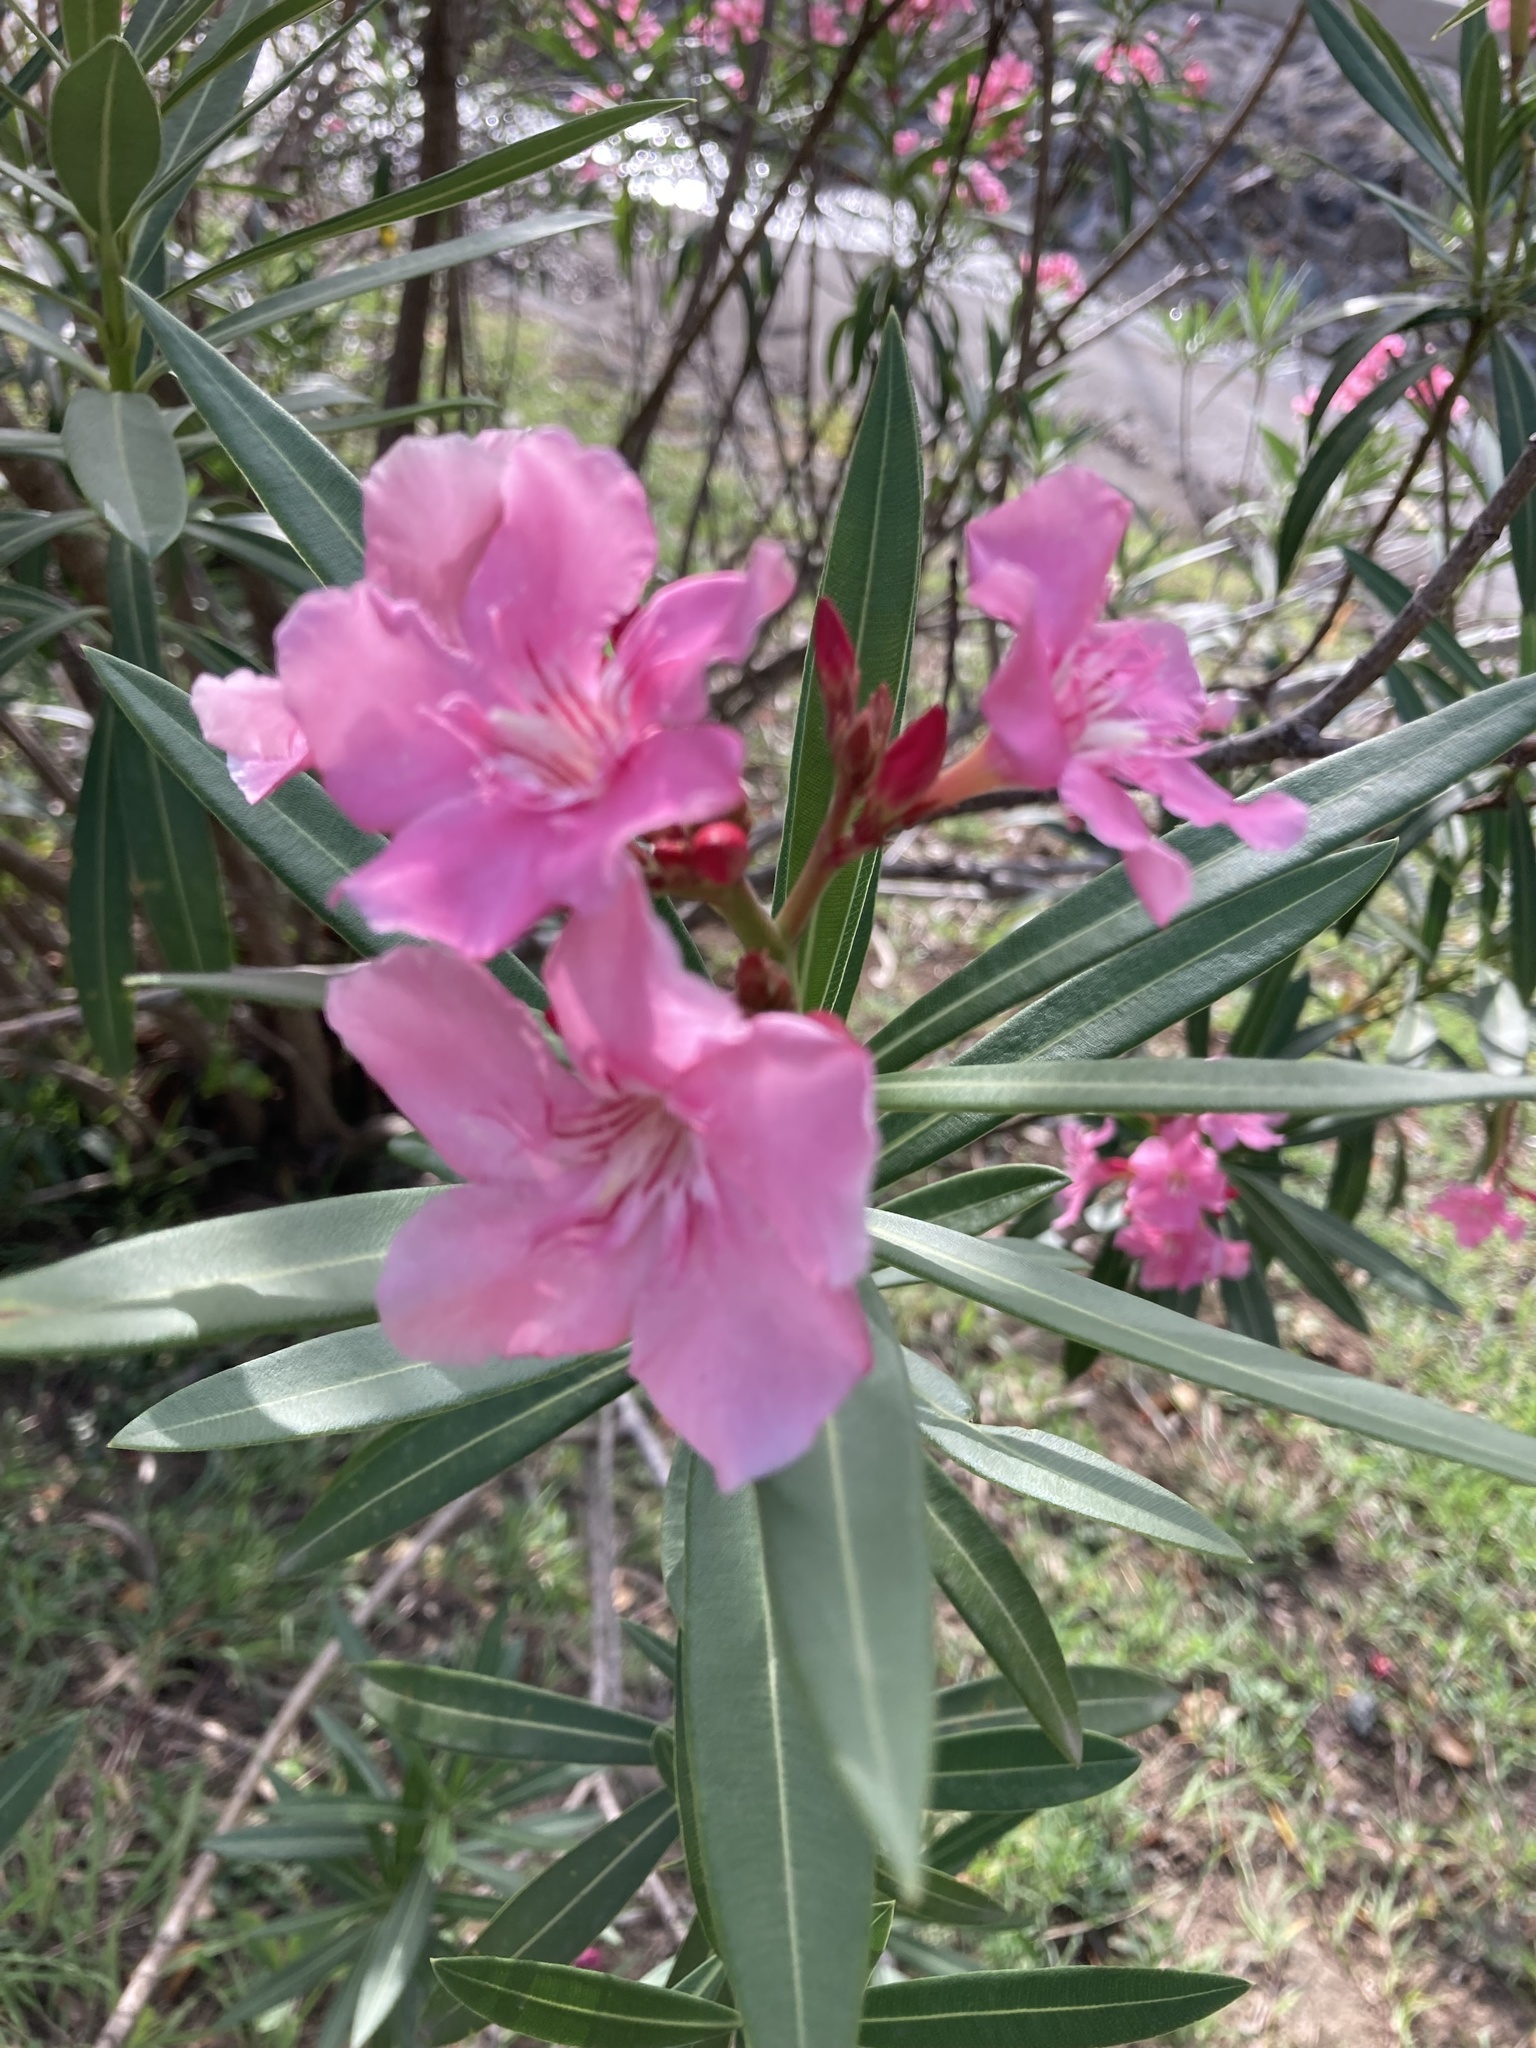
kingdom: Plantae
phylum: Tracheophyta
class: Magnoliopsida
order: Gentianales
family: Apocynaceae
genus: Nerium
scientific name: Nerium oleander
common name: Oleander
